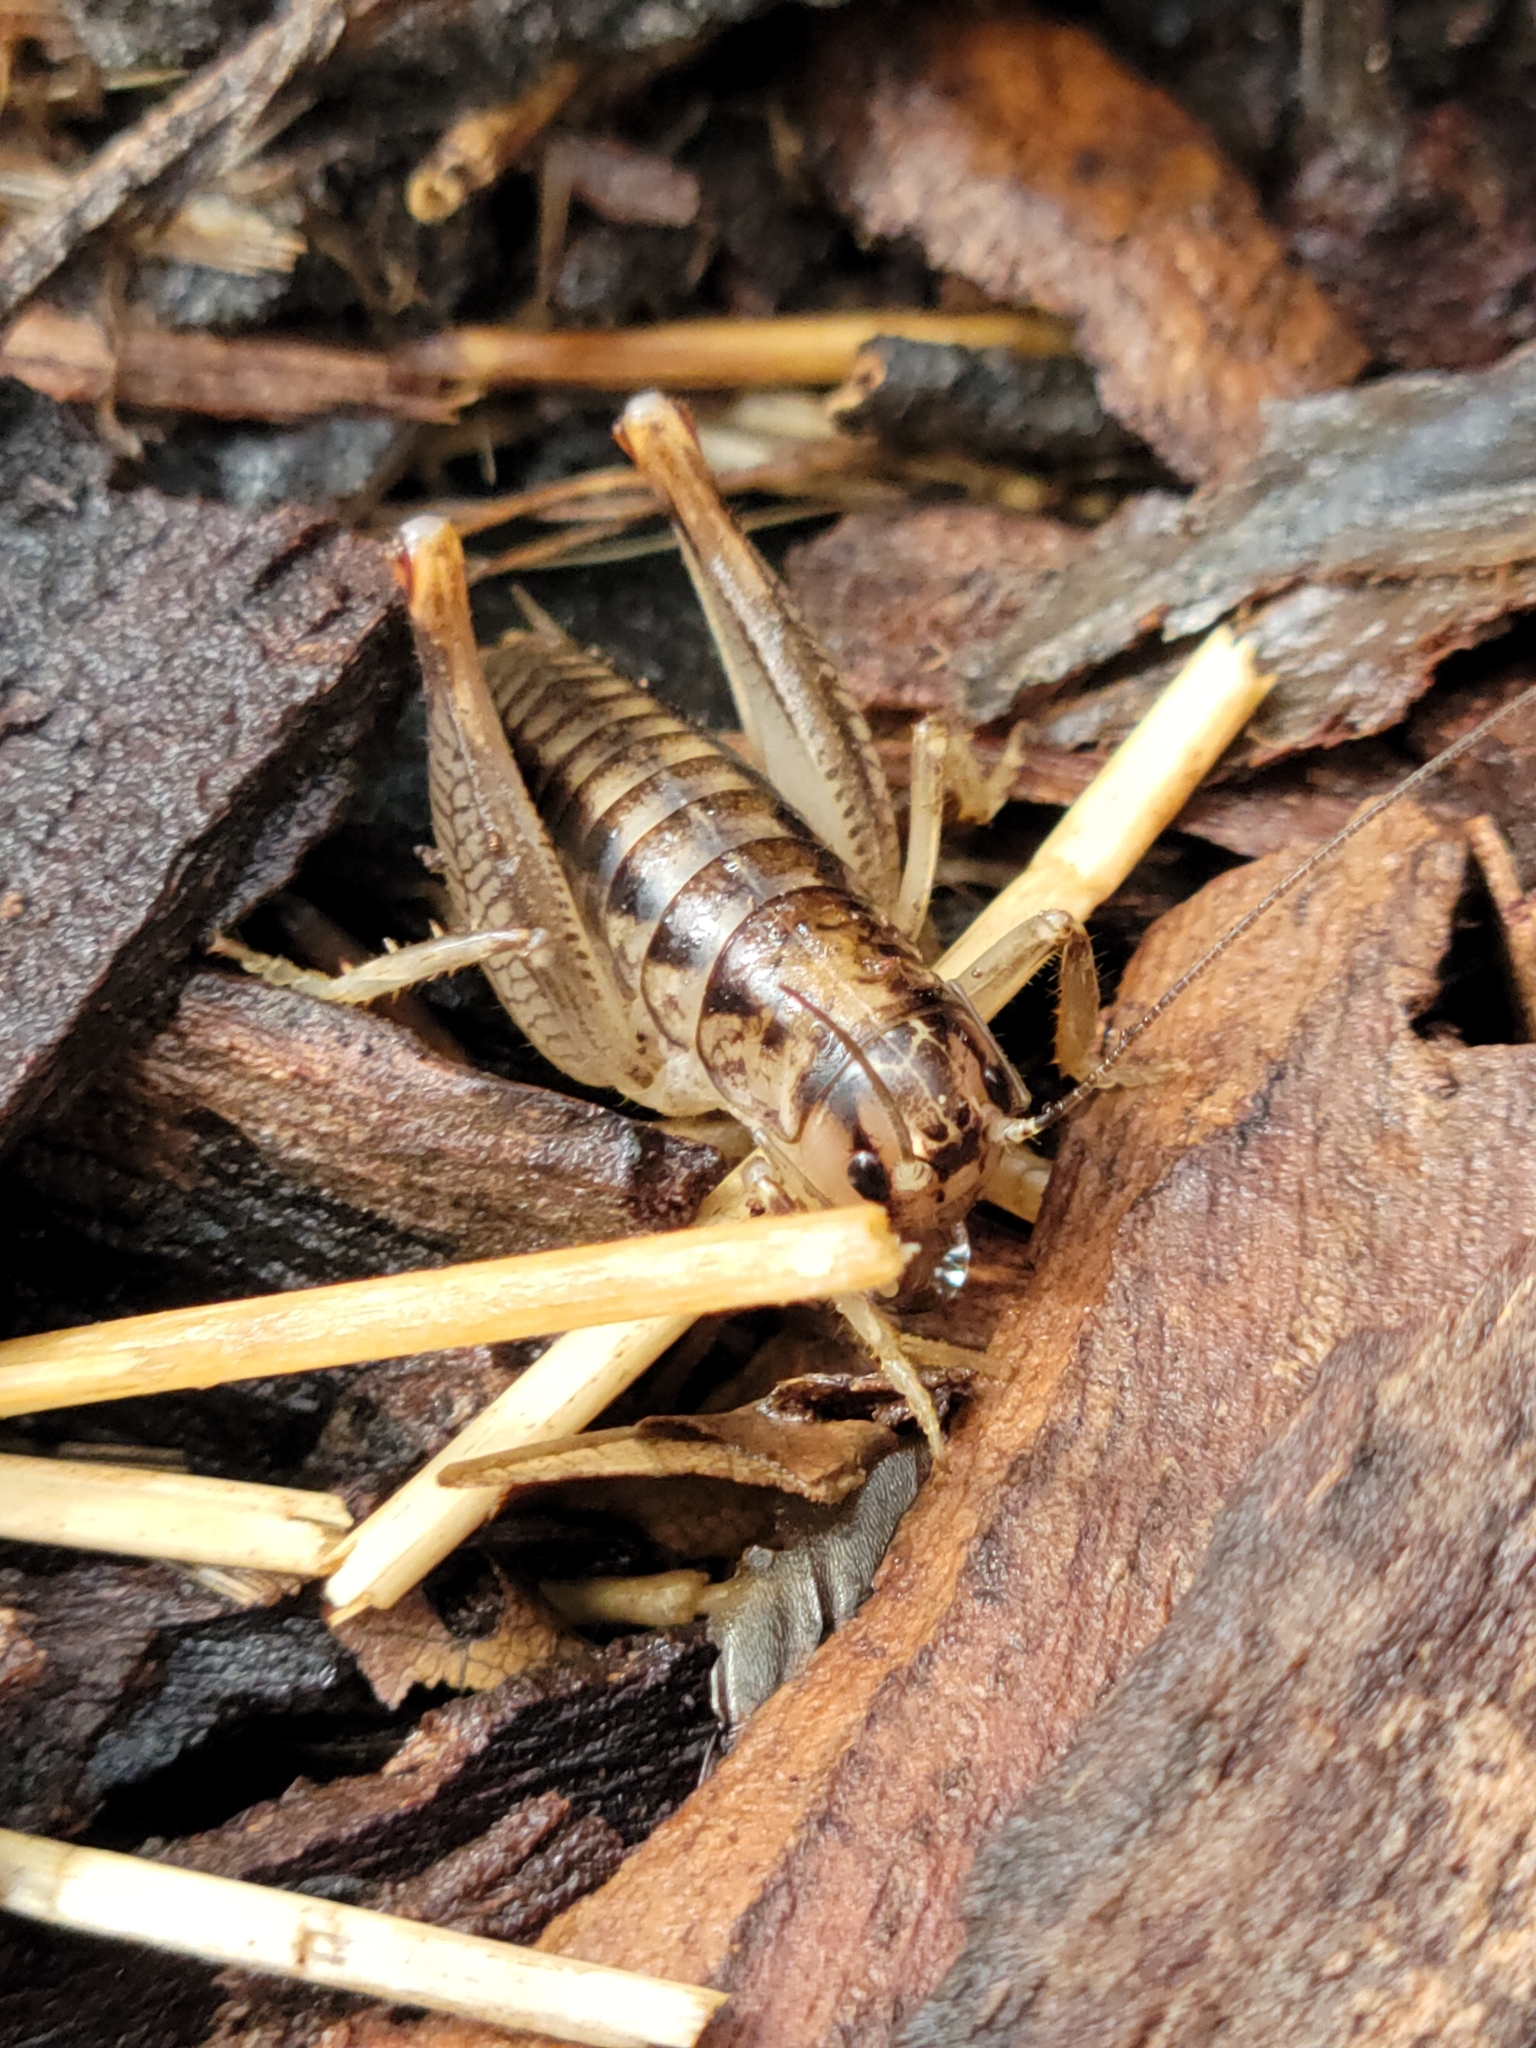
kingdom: Animalia
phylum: Arthropoda
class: Insecta
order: Orthoptera
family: Anostostomatidae
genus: Cnemotettix
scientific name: Cnemotettix bifasciatus
